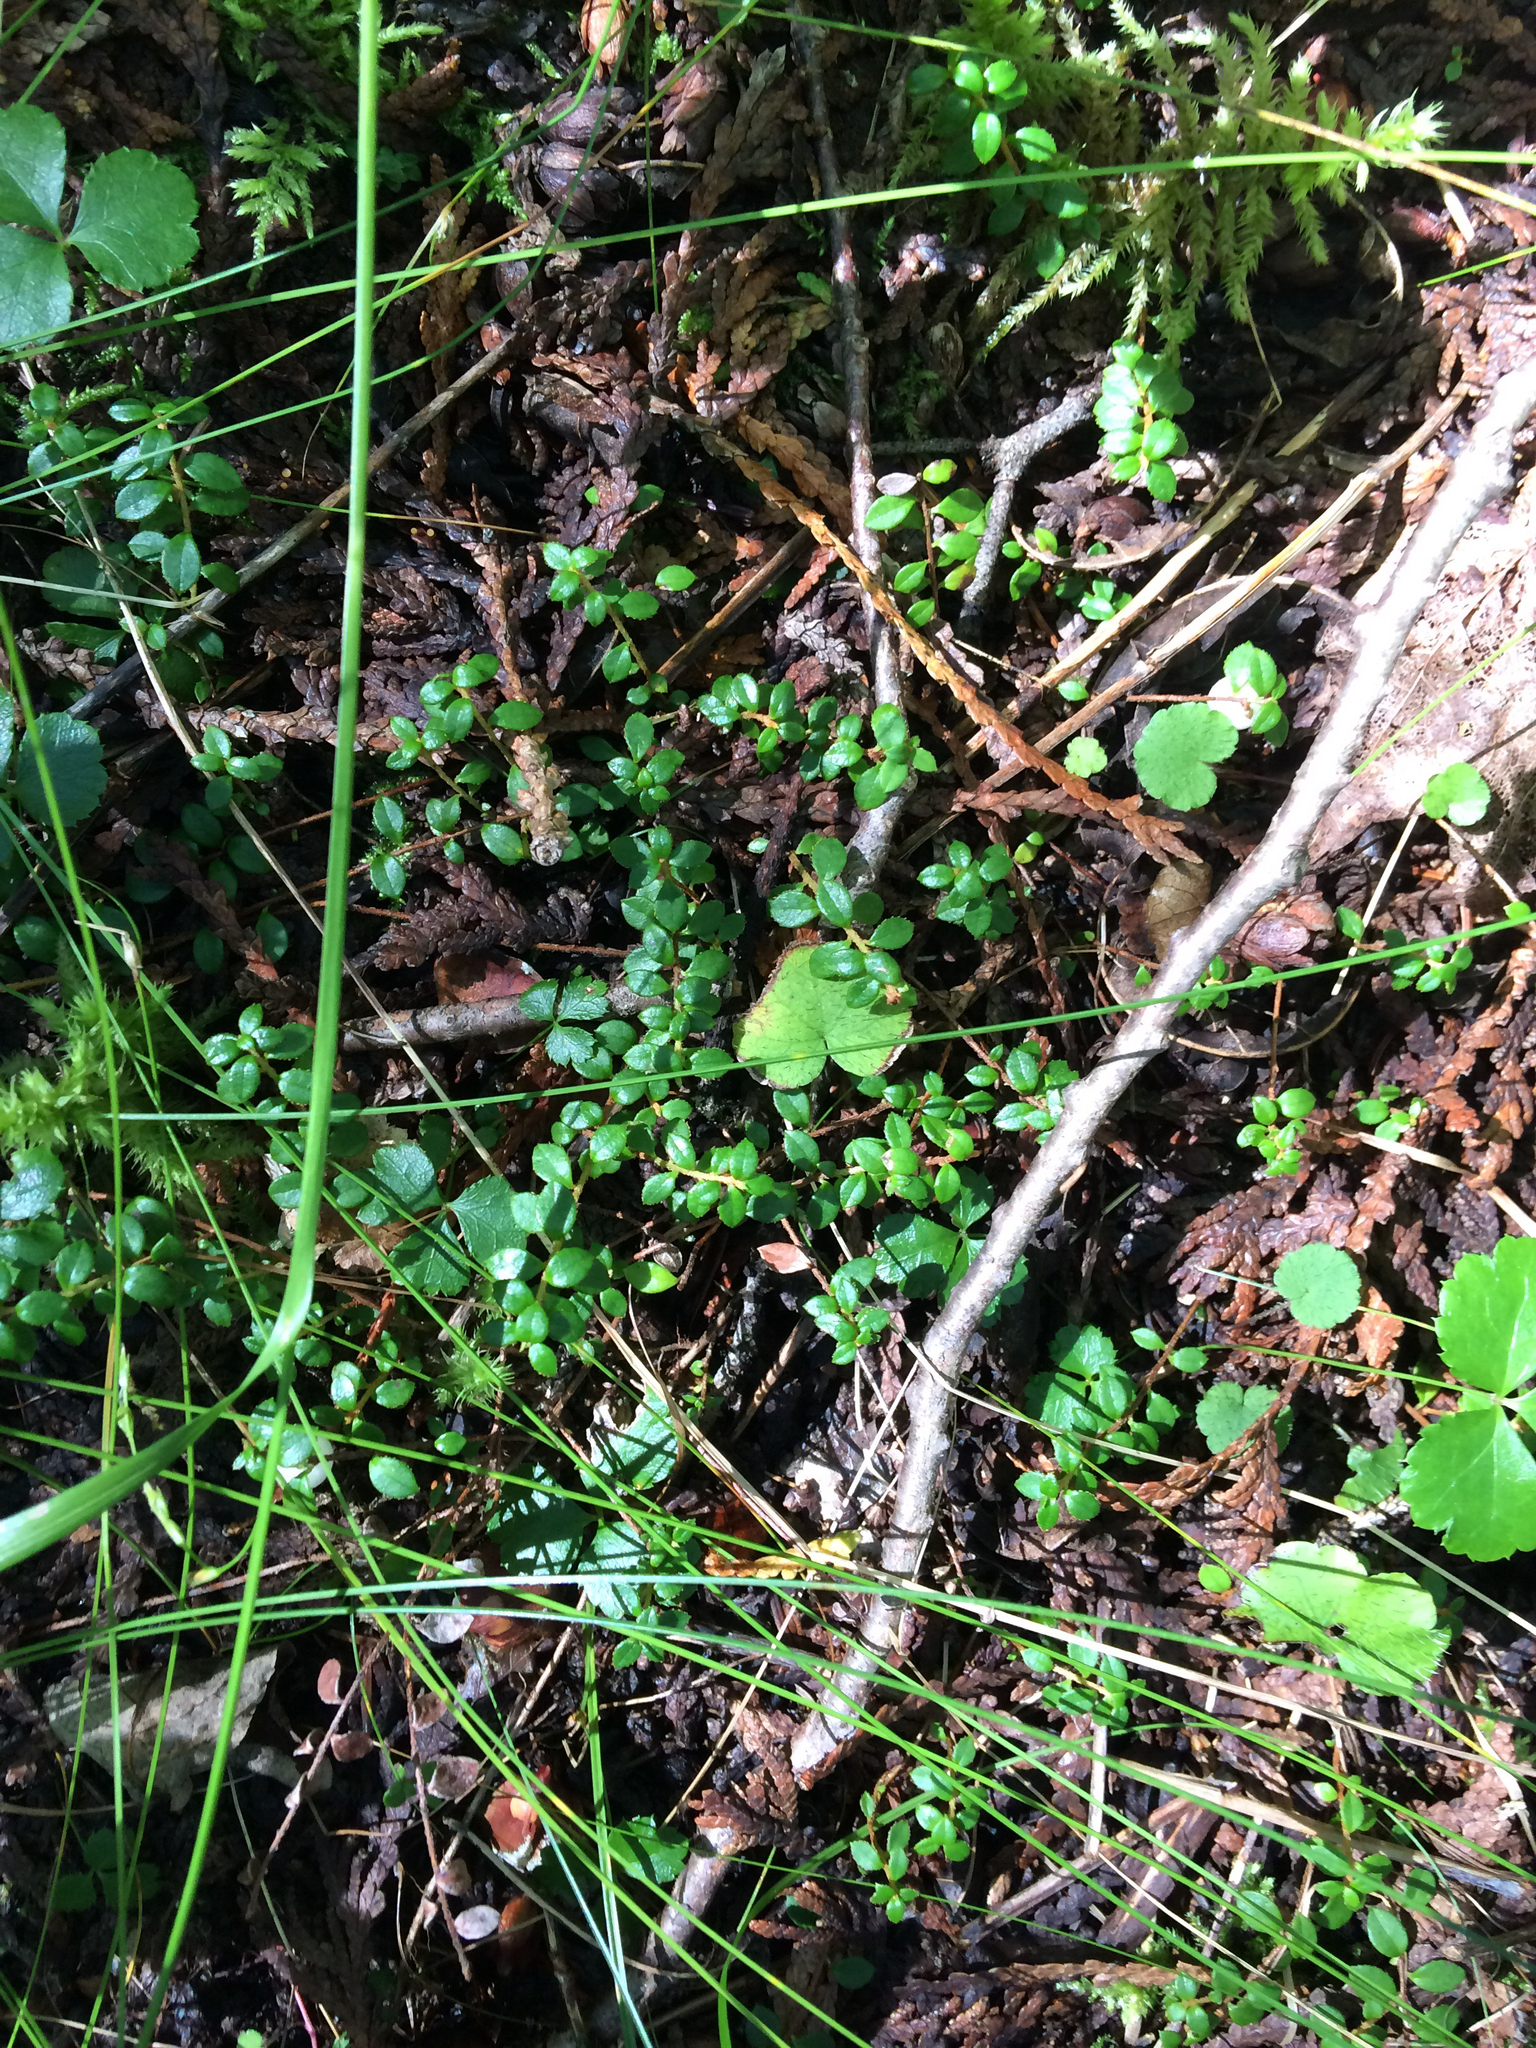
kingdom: Plantae
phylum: Tracheophyta
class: Magnoliopsida
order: Ericales
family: Ericaceae
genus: Gaultheria
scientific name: Gaultheria procumbens
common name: Checkerberry
